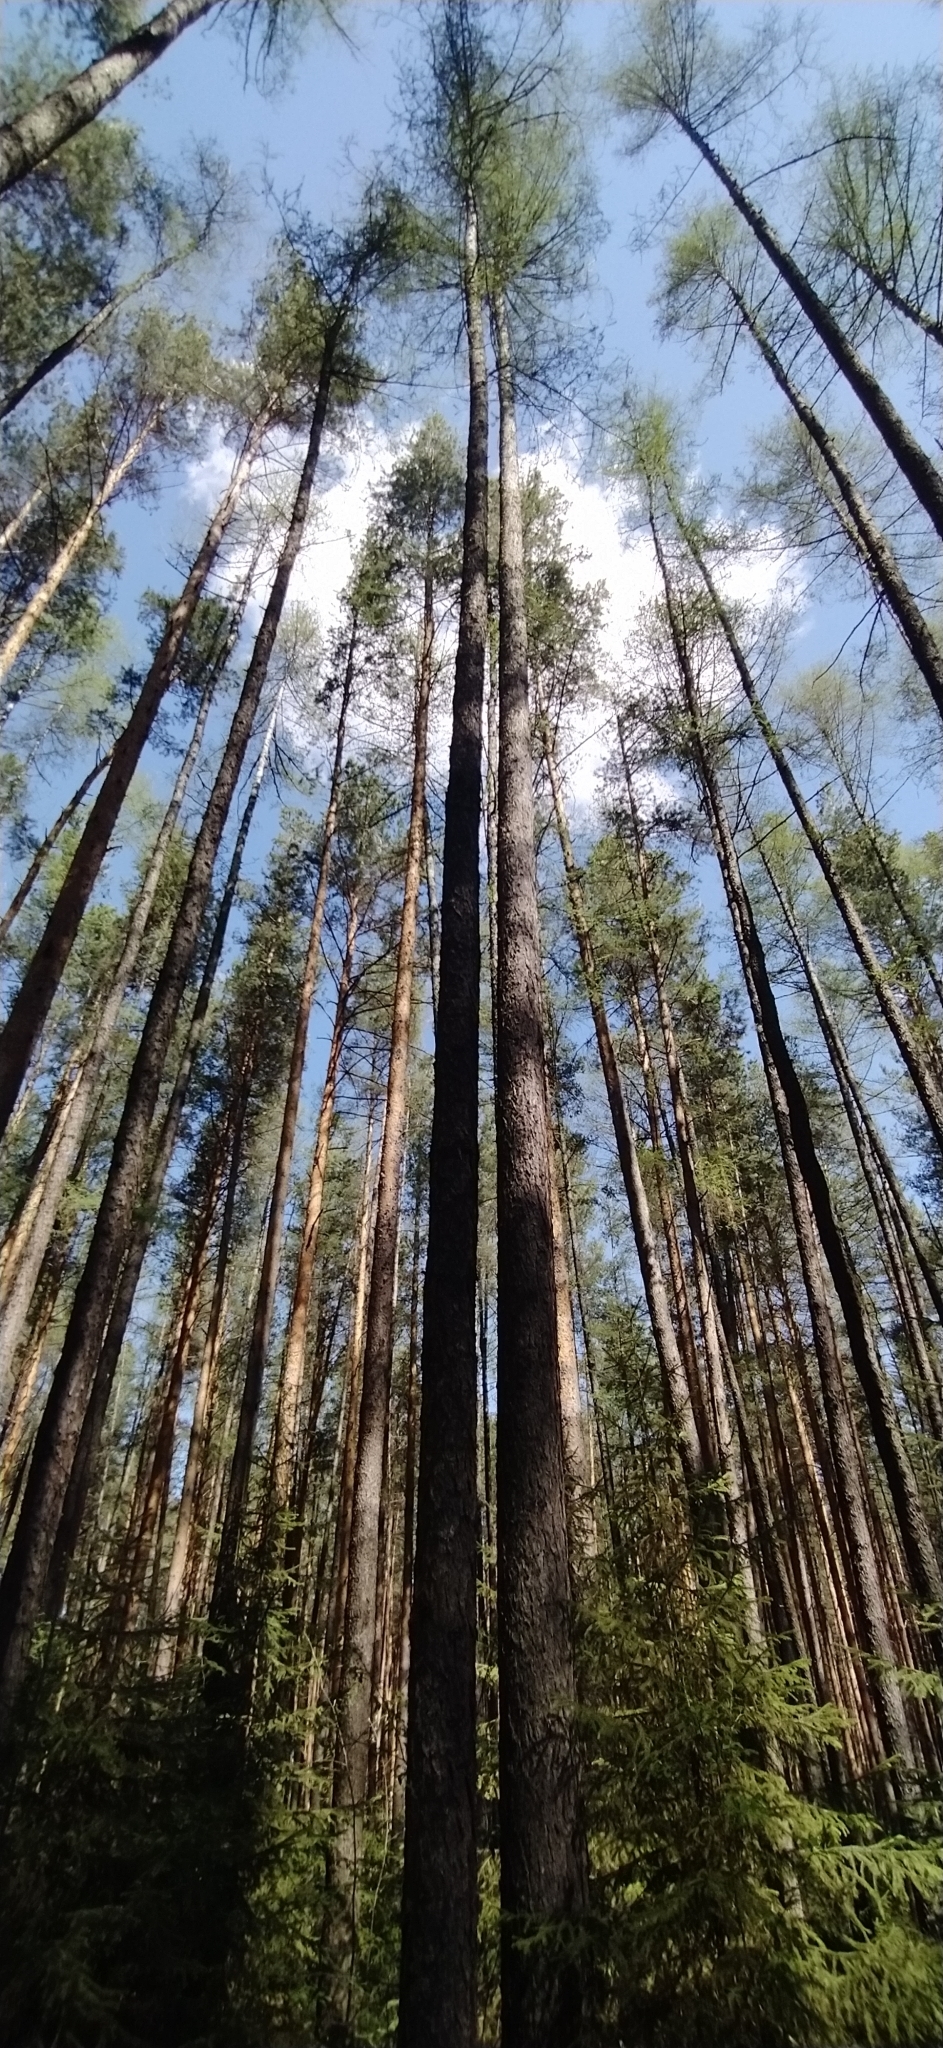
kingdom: Plantae
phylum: Tracheophyta
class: Pinopsida
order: Pinales
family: Pinaceae
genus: Larix
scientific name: Larix sibirica
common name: Siberian larch
